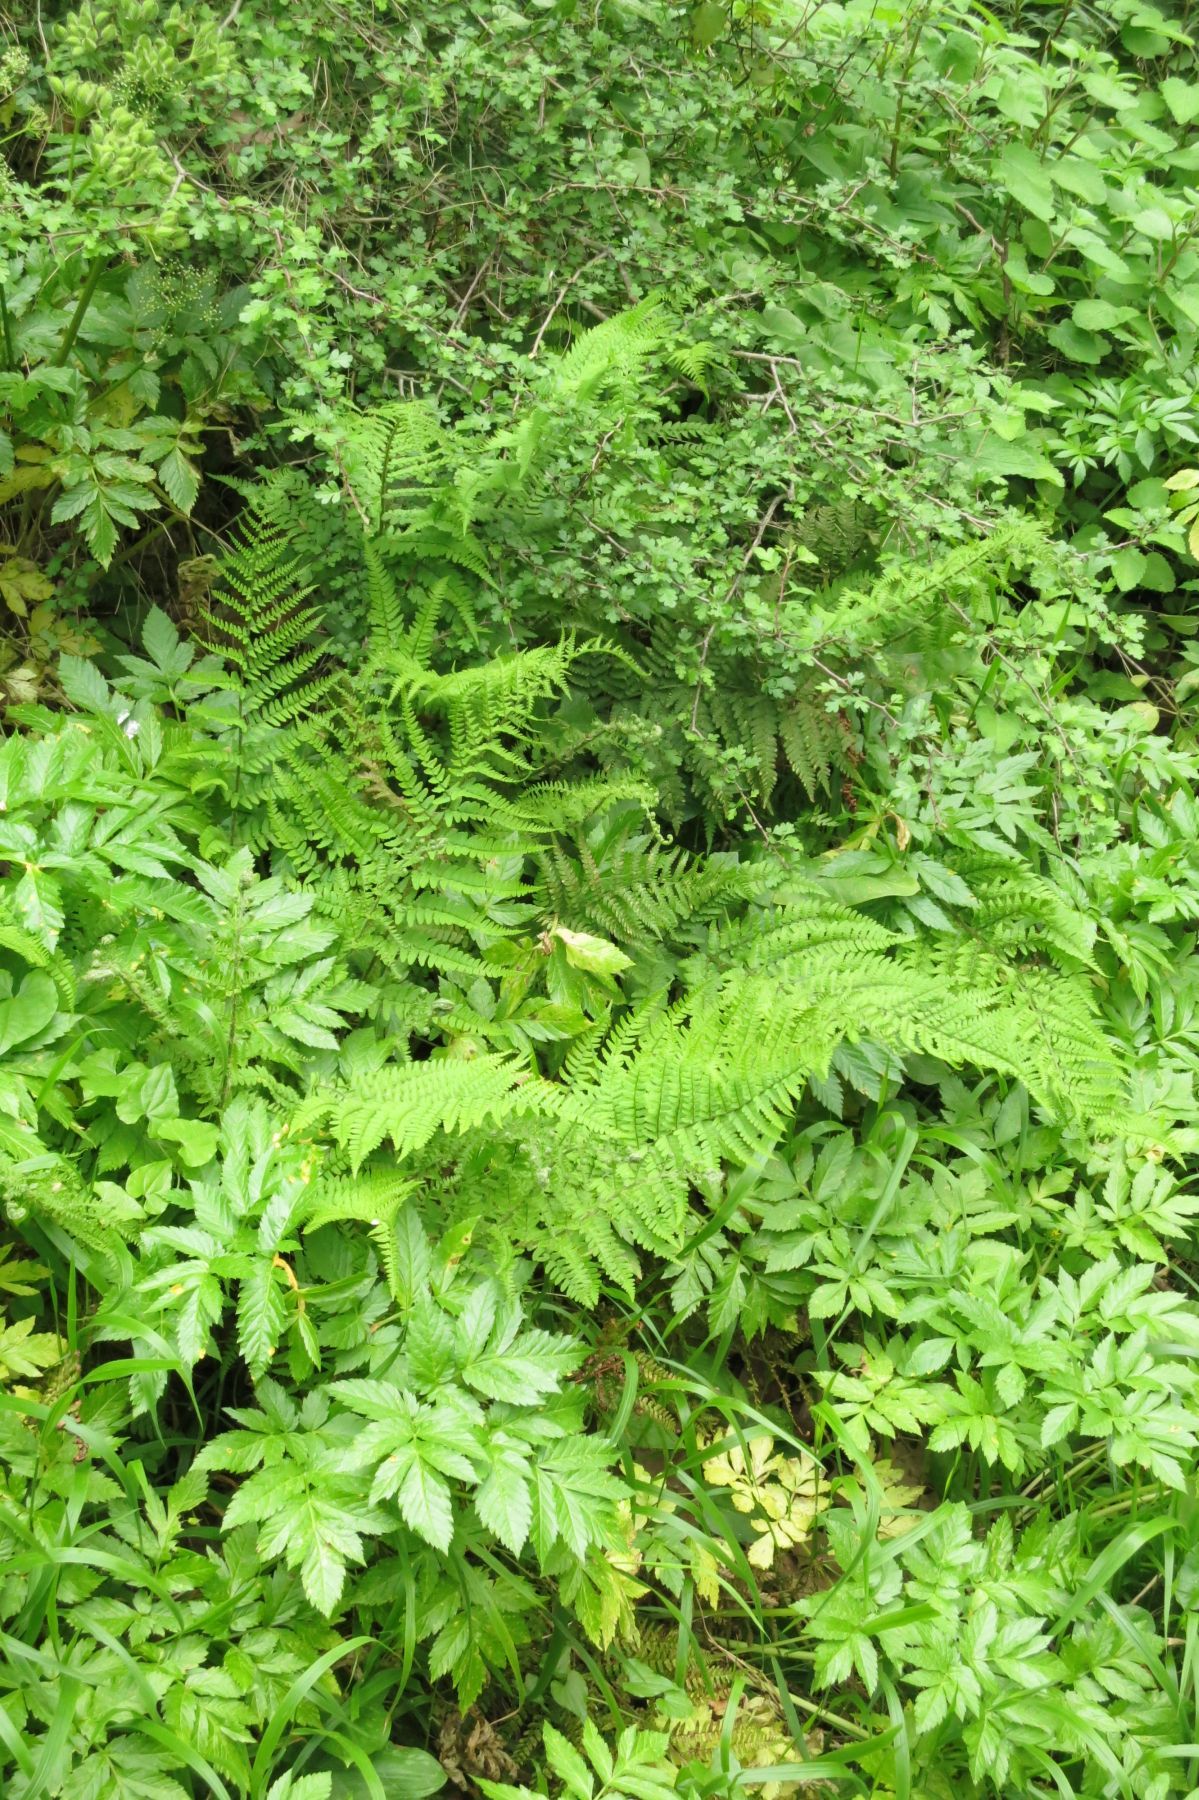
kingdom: Plantae
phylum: Tracheophyta
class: Polypodiopsida
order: Polypodiales
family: Dryopteridaceae
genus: Dryopteris
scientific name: Dryopteris pallida
